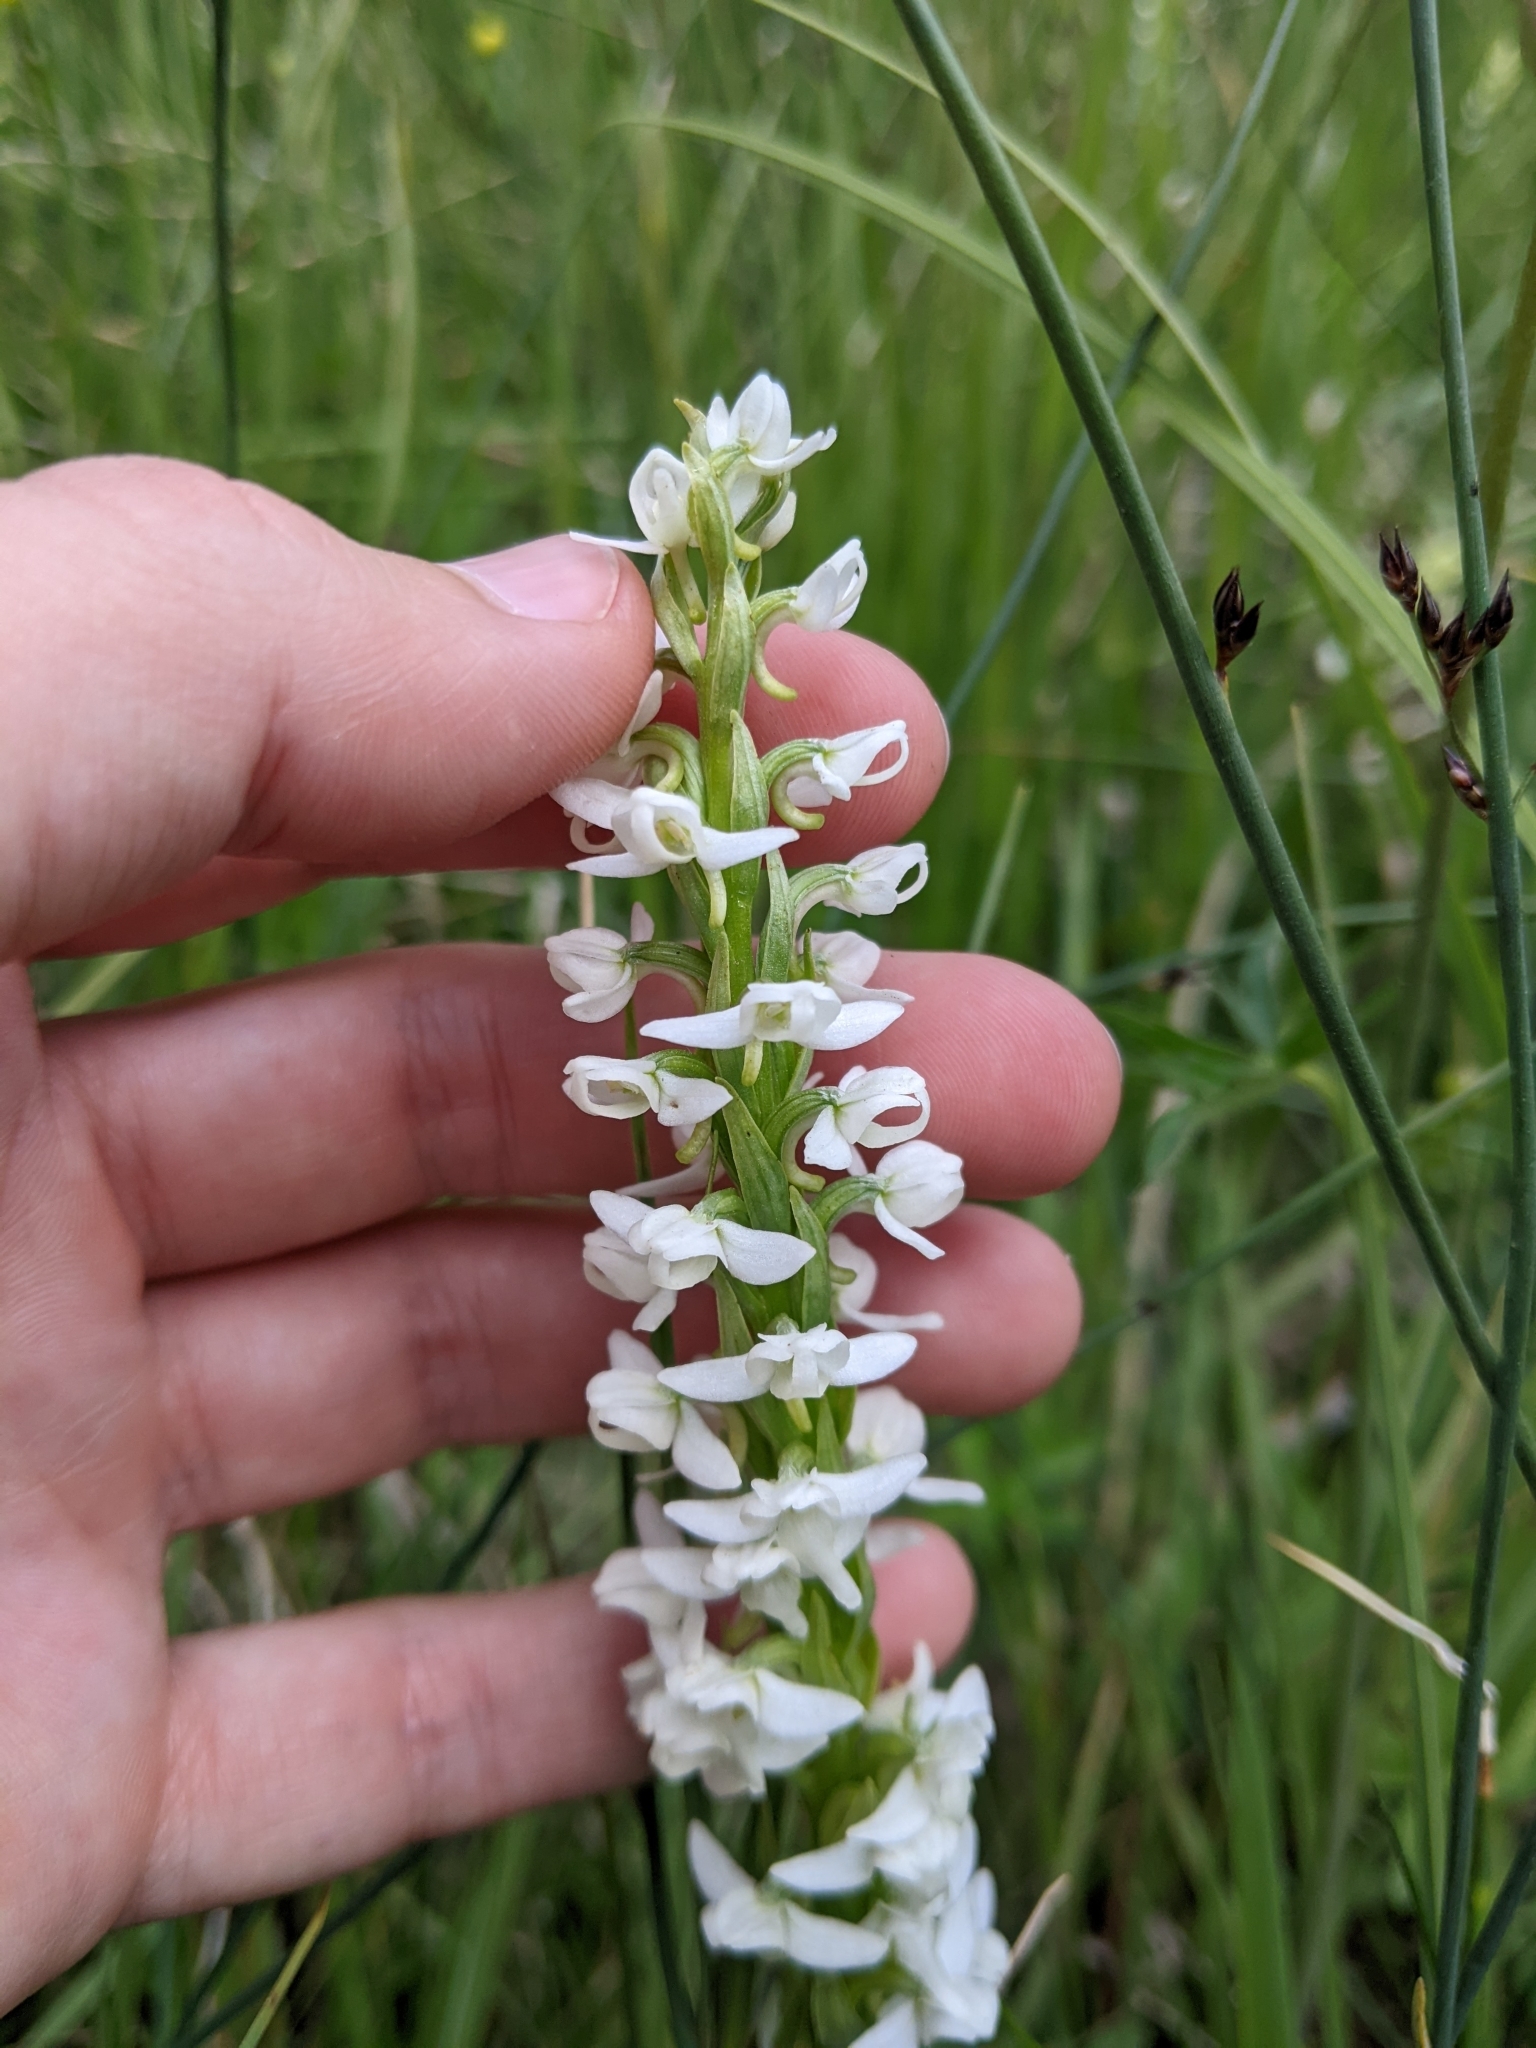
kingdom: Plantae
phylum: Tracheophyta
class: Liliopsida
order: Asparagales
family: Orchidaceae
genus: Platanthera
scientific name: Platanthera dilatata
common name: Bog candles
